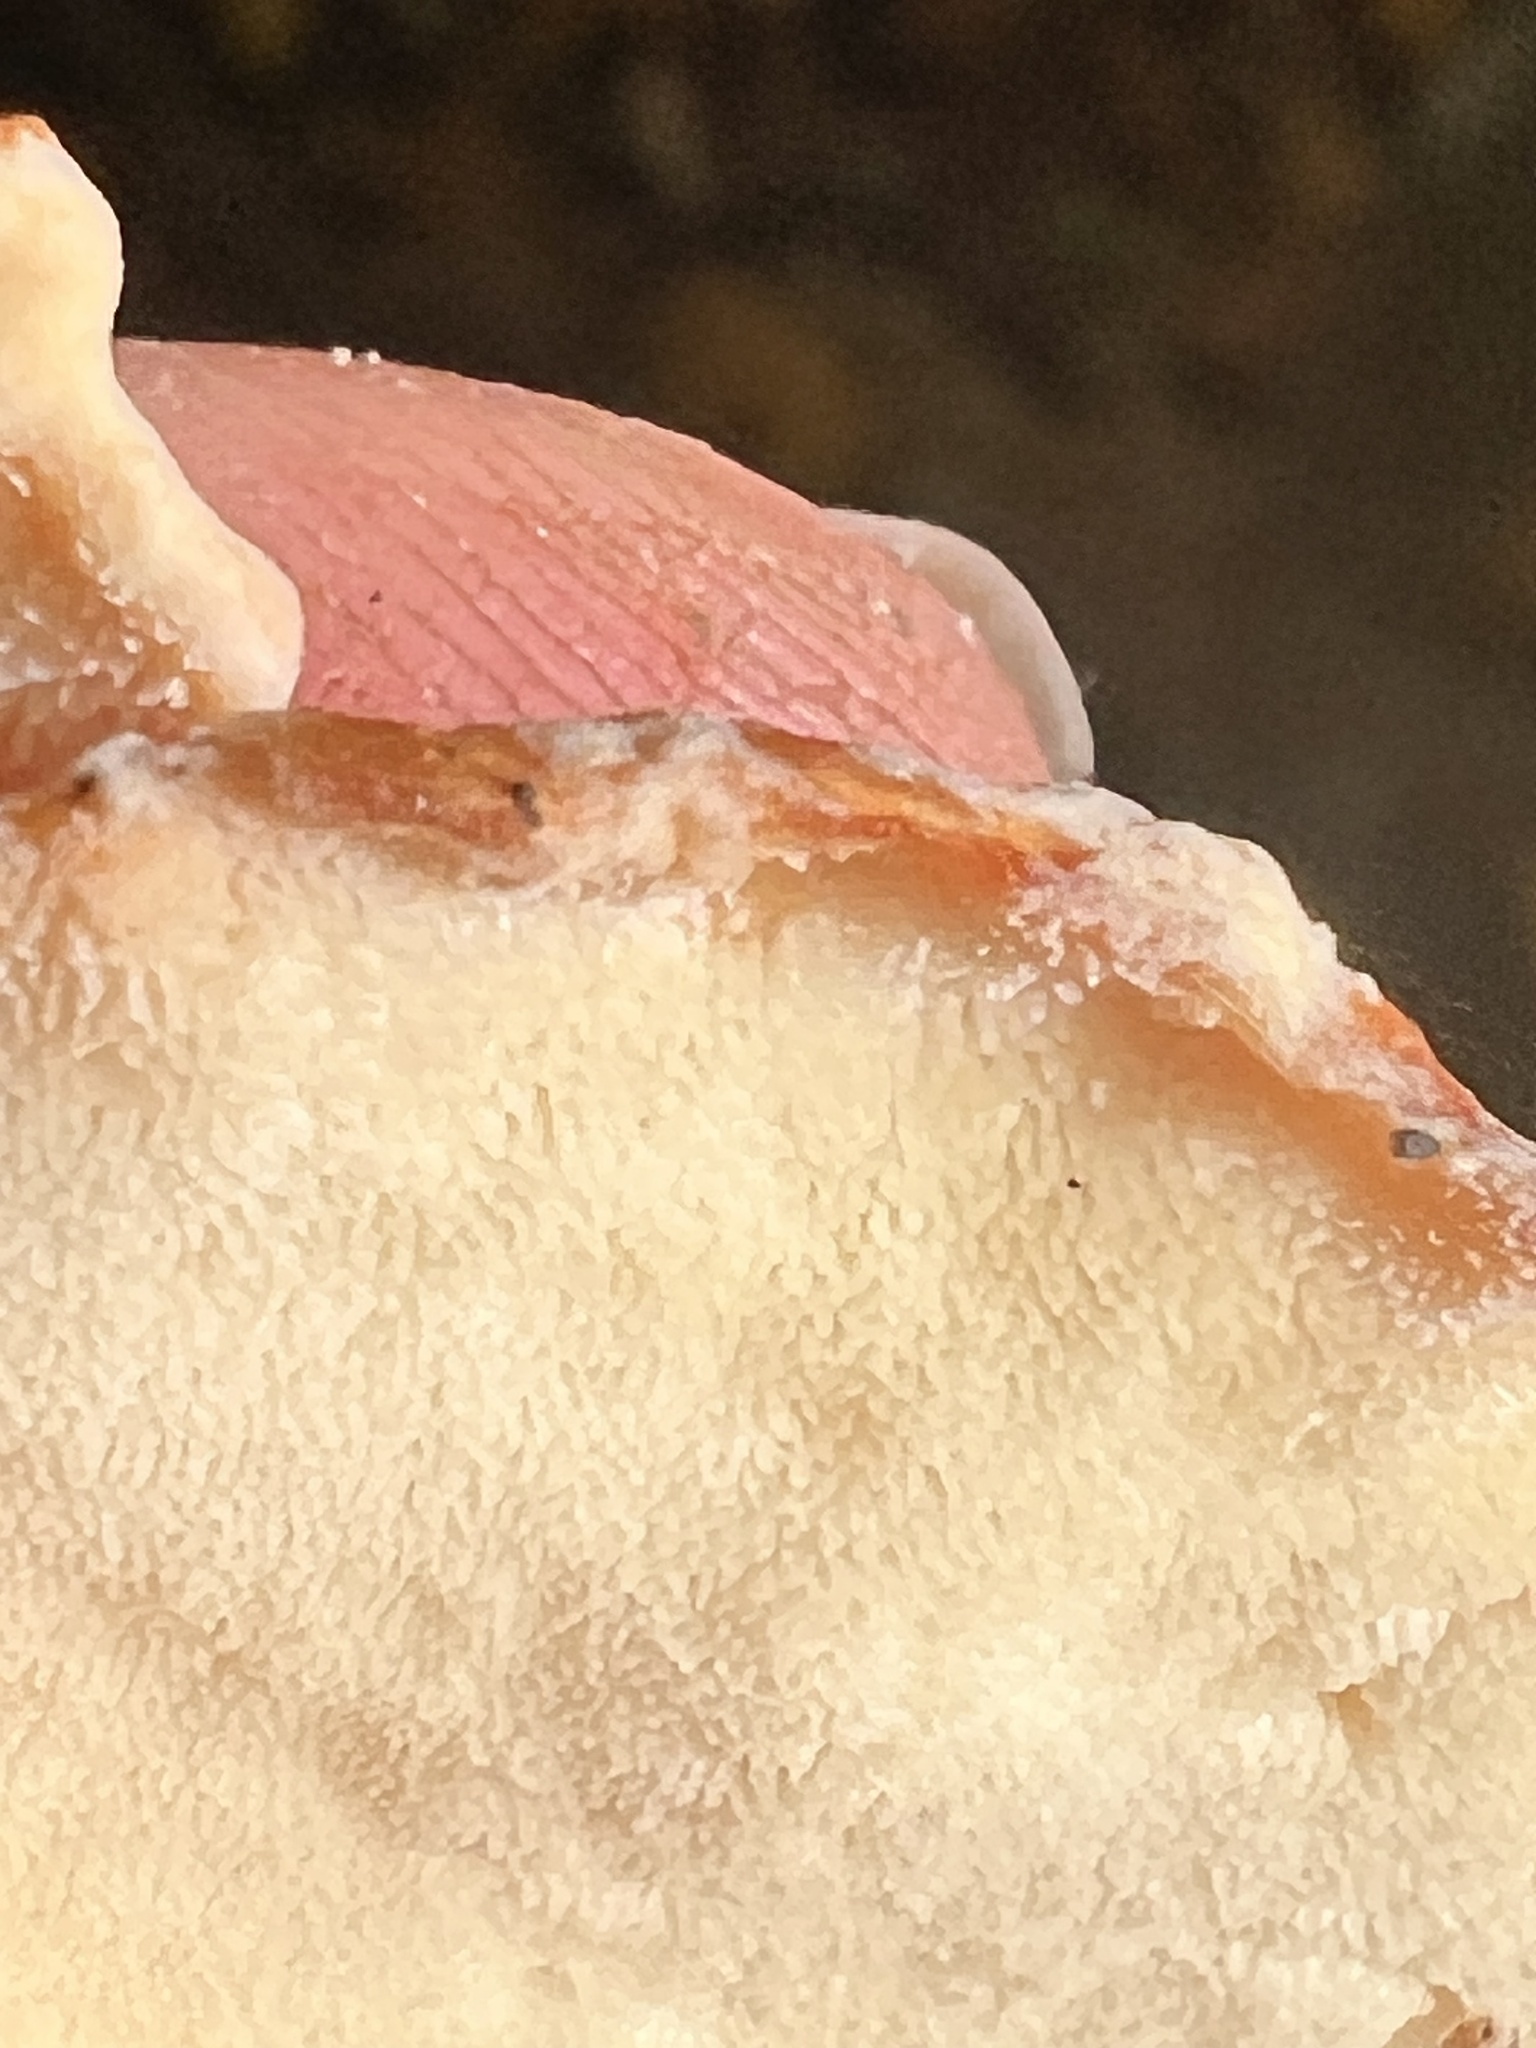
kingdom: Fungi
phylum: Basidiomycota
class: Agaricomycetes
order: Polyporales
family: Laetiporaceae
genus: Laetiporus
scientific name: Laetiporus sulphureus
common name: Chicken of the woods
